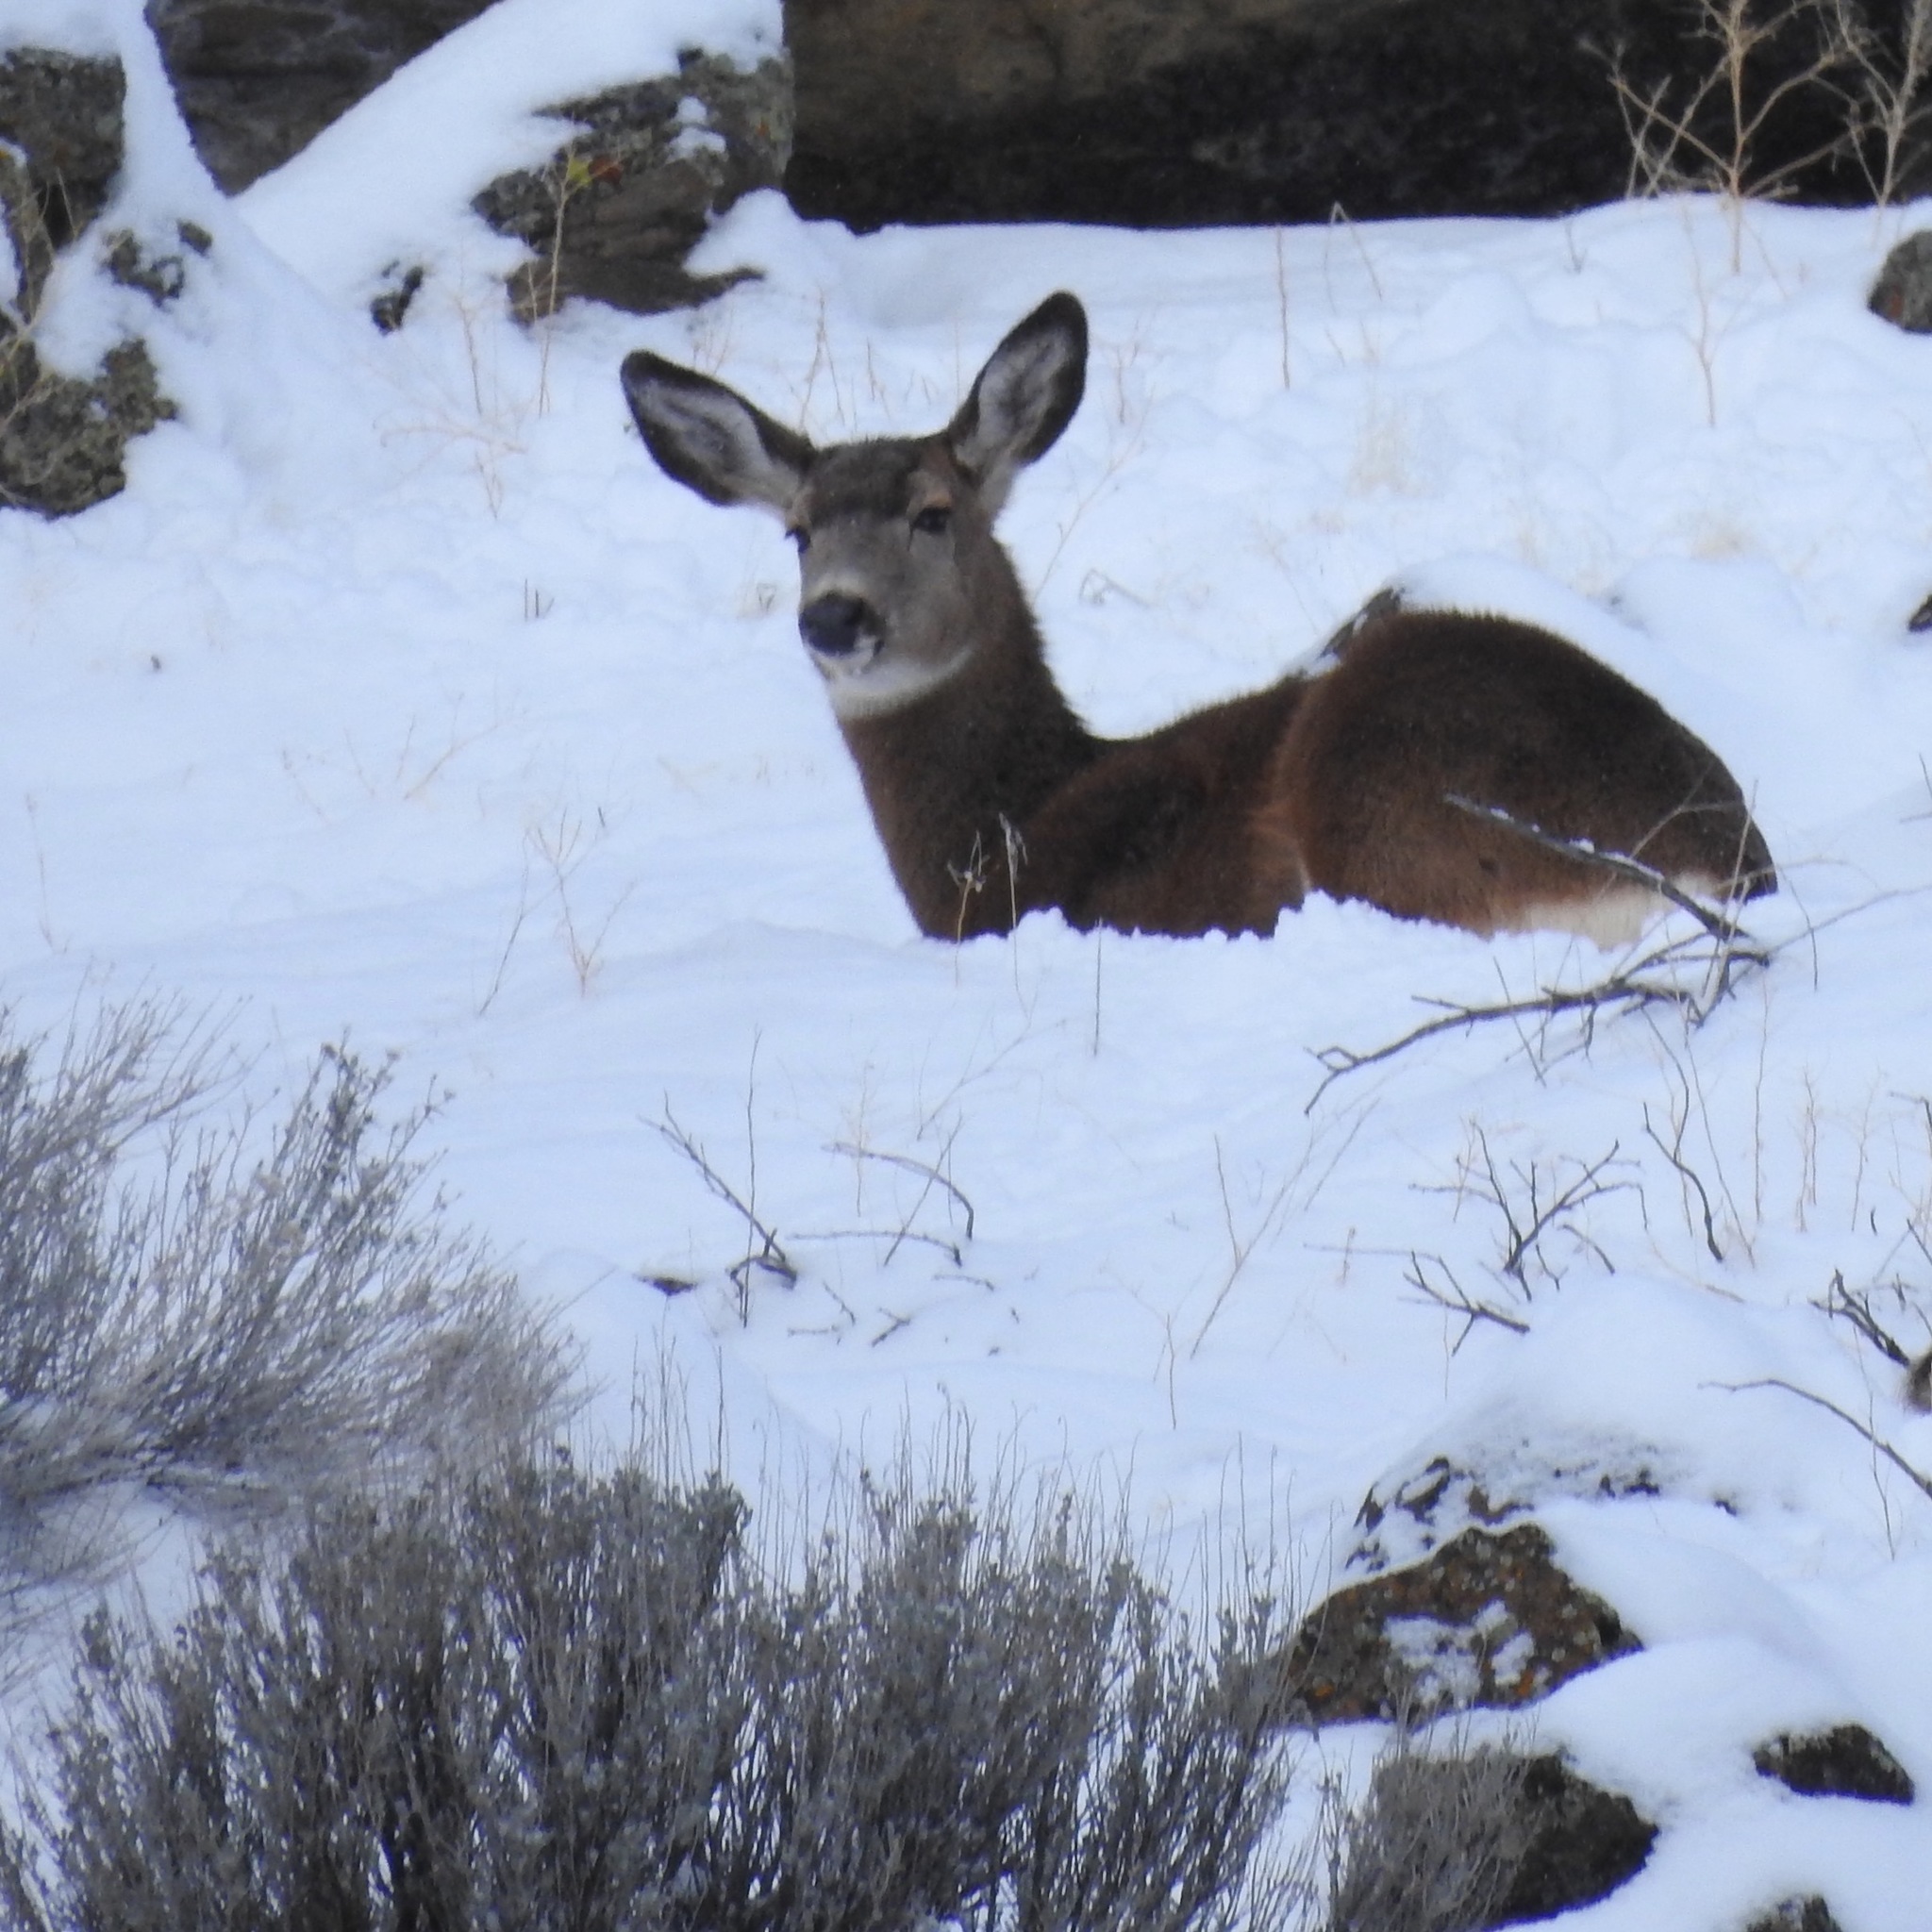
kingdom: Animalia
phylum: Chordata
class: Mammalia
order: Artiodactyla
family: Cervidae
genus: Odocoileus
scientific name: Odocoileus hemionus
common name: Mule deer
